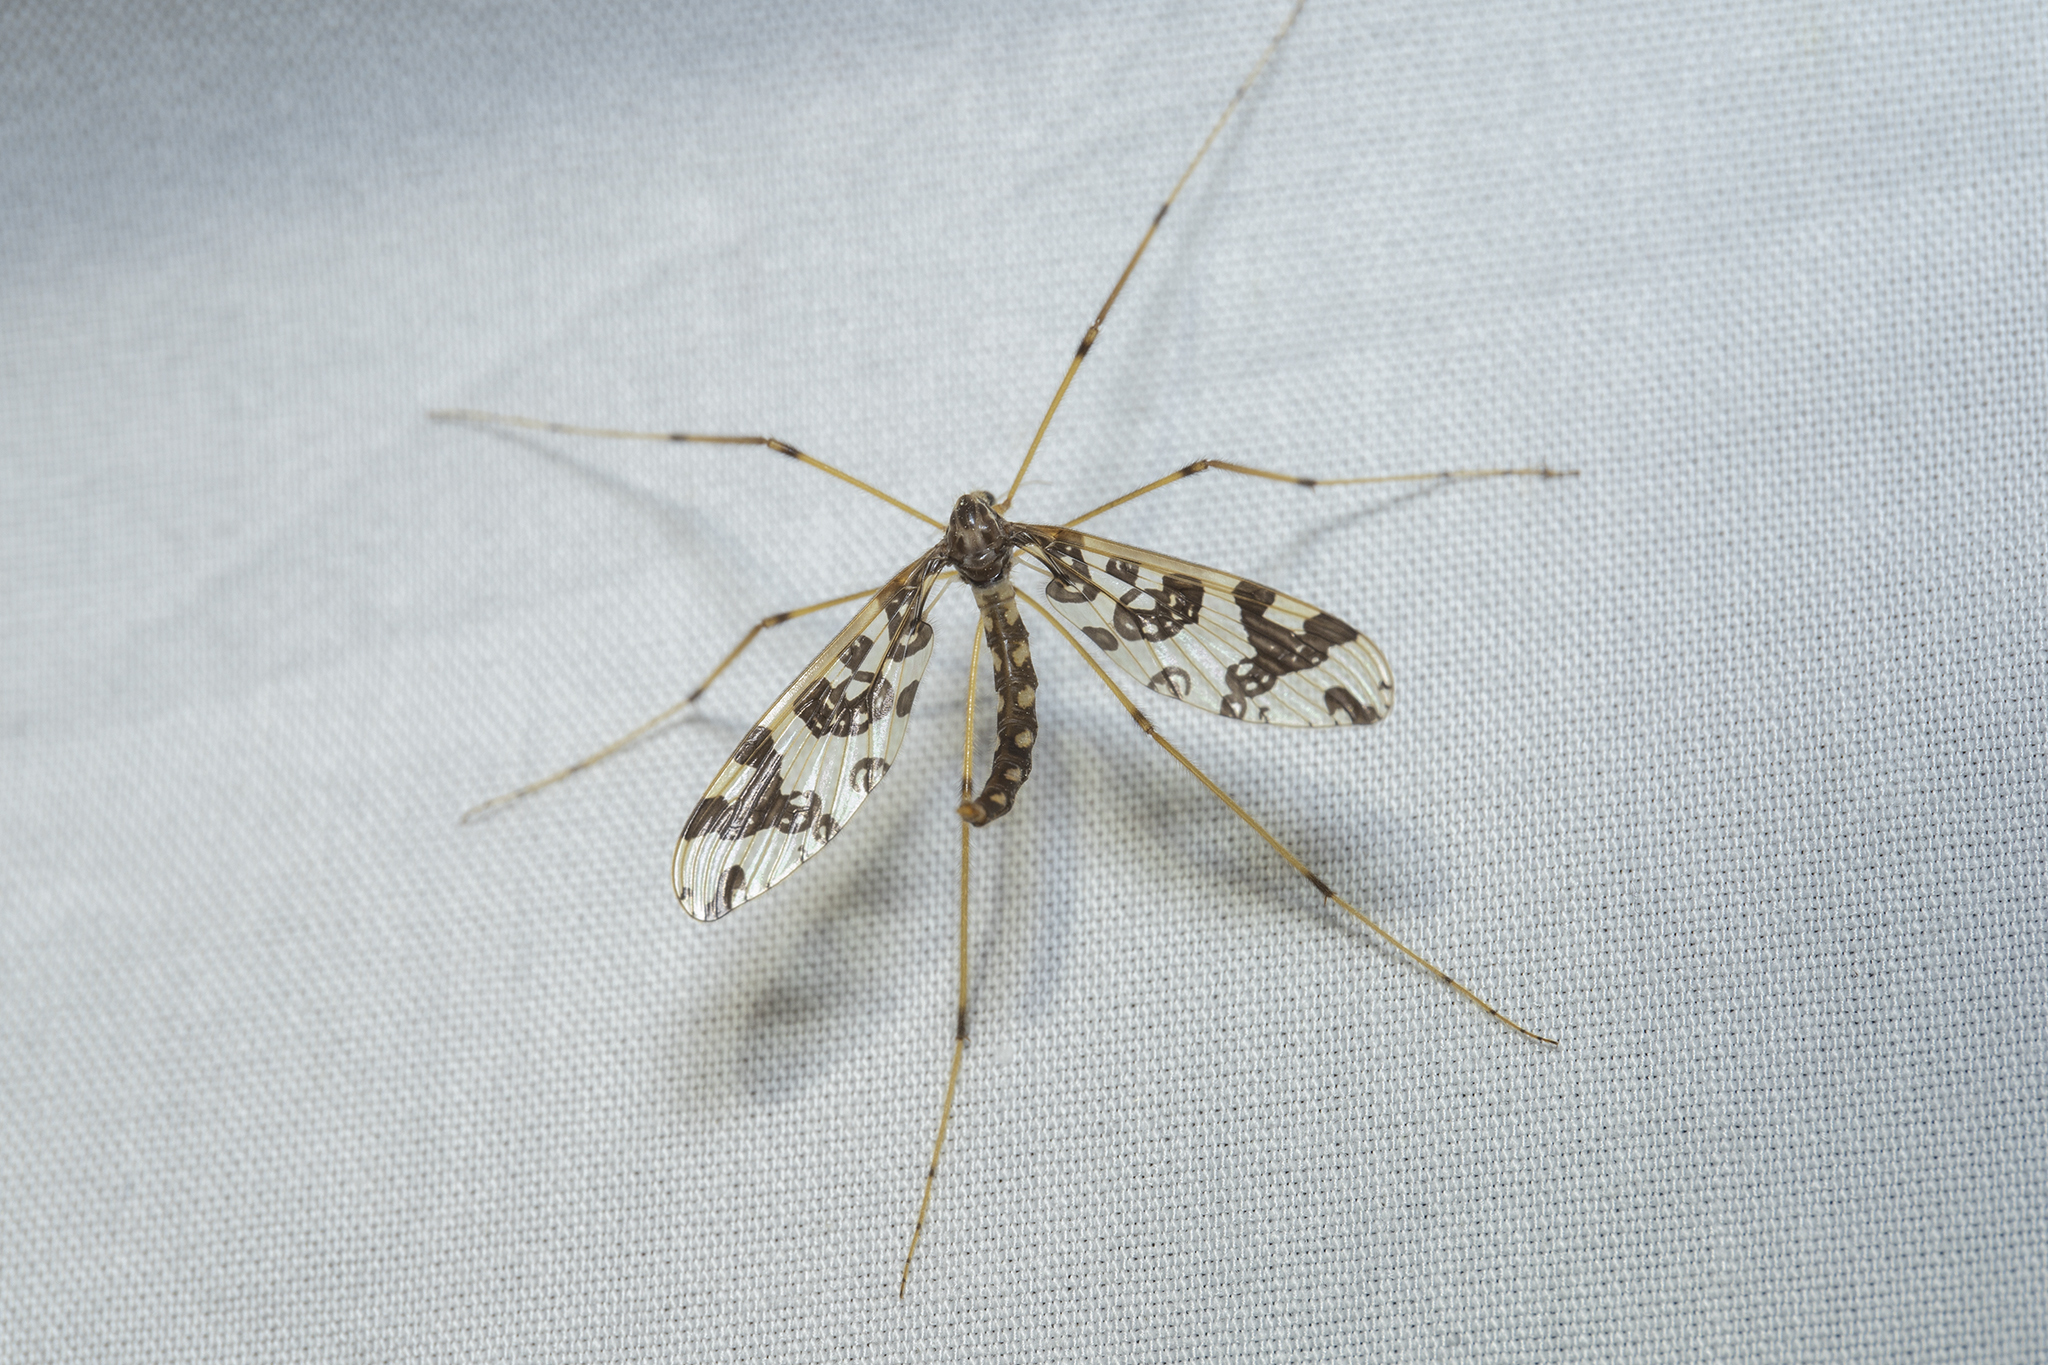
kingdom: Animalia
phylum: Arthropoda
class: Insecta
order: Diptera
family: Tanyderidae
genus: Tanyderus
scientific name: Tanyderus annuliferus
